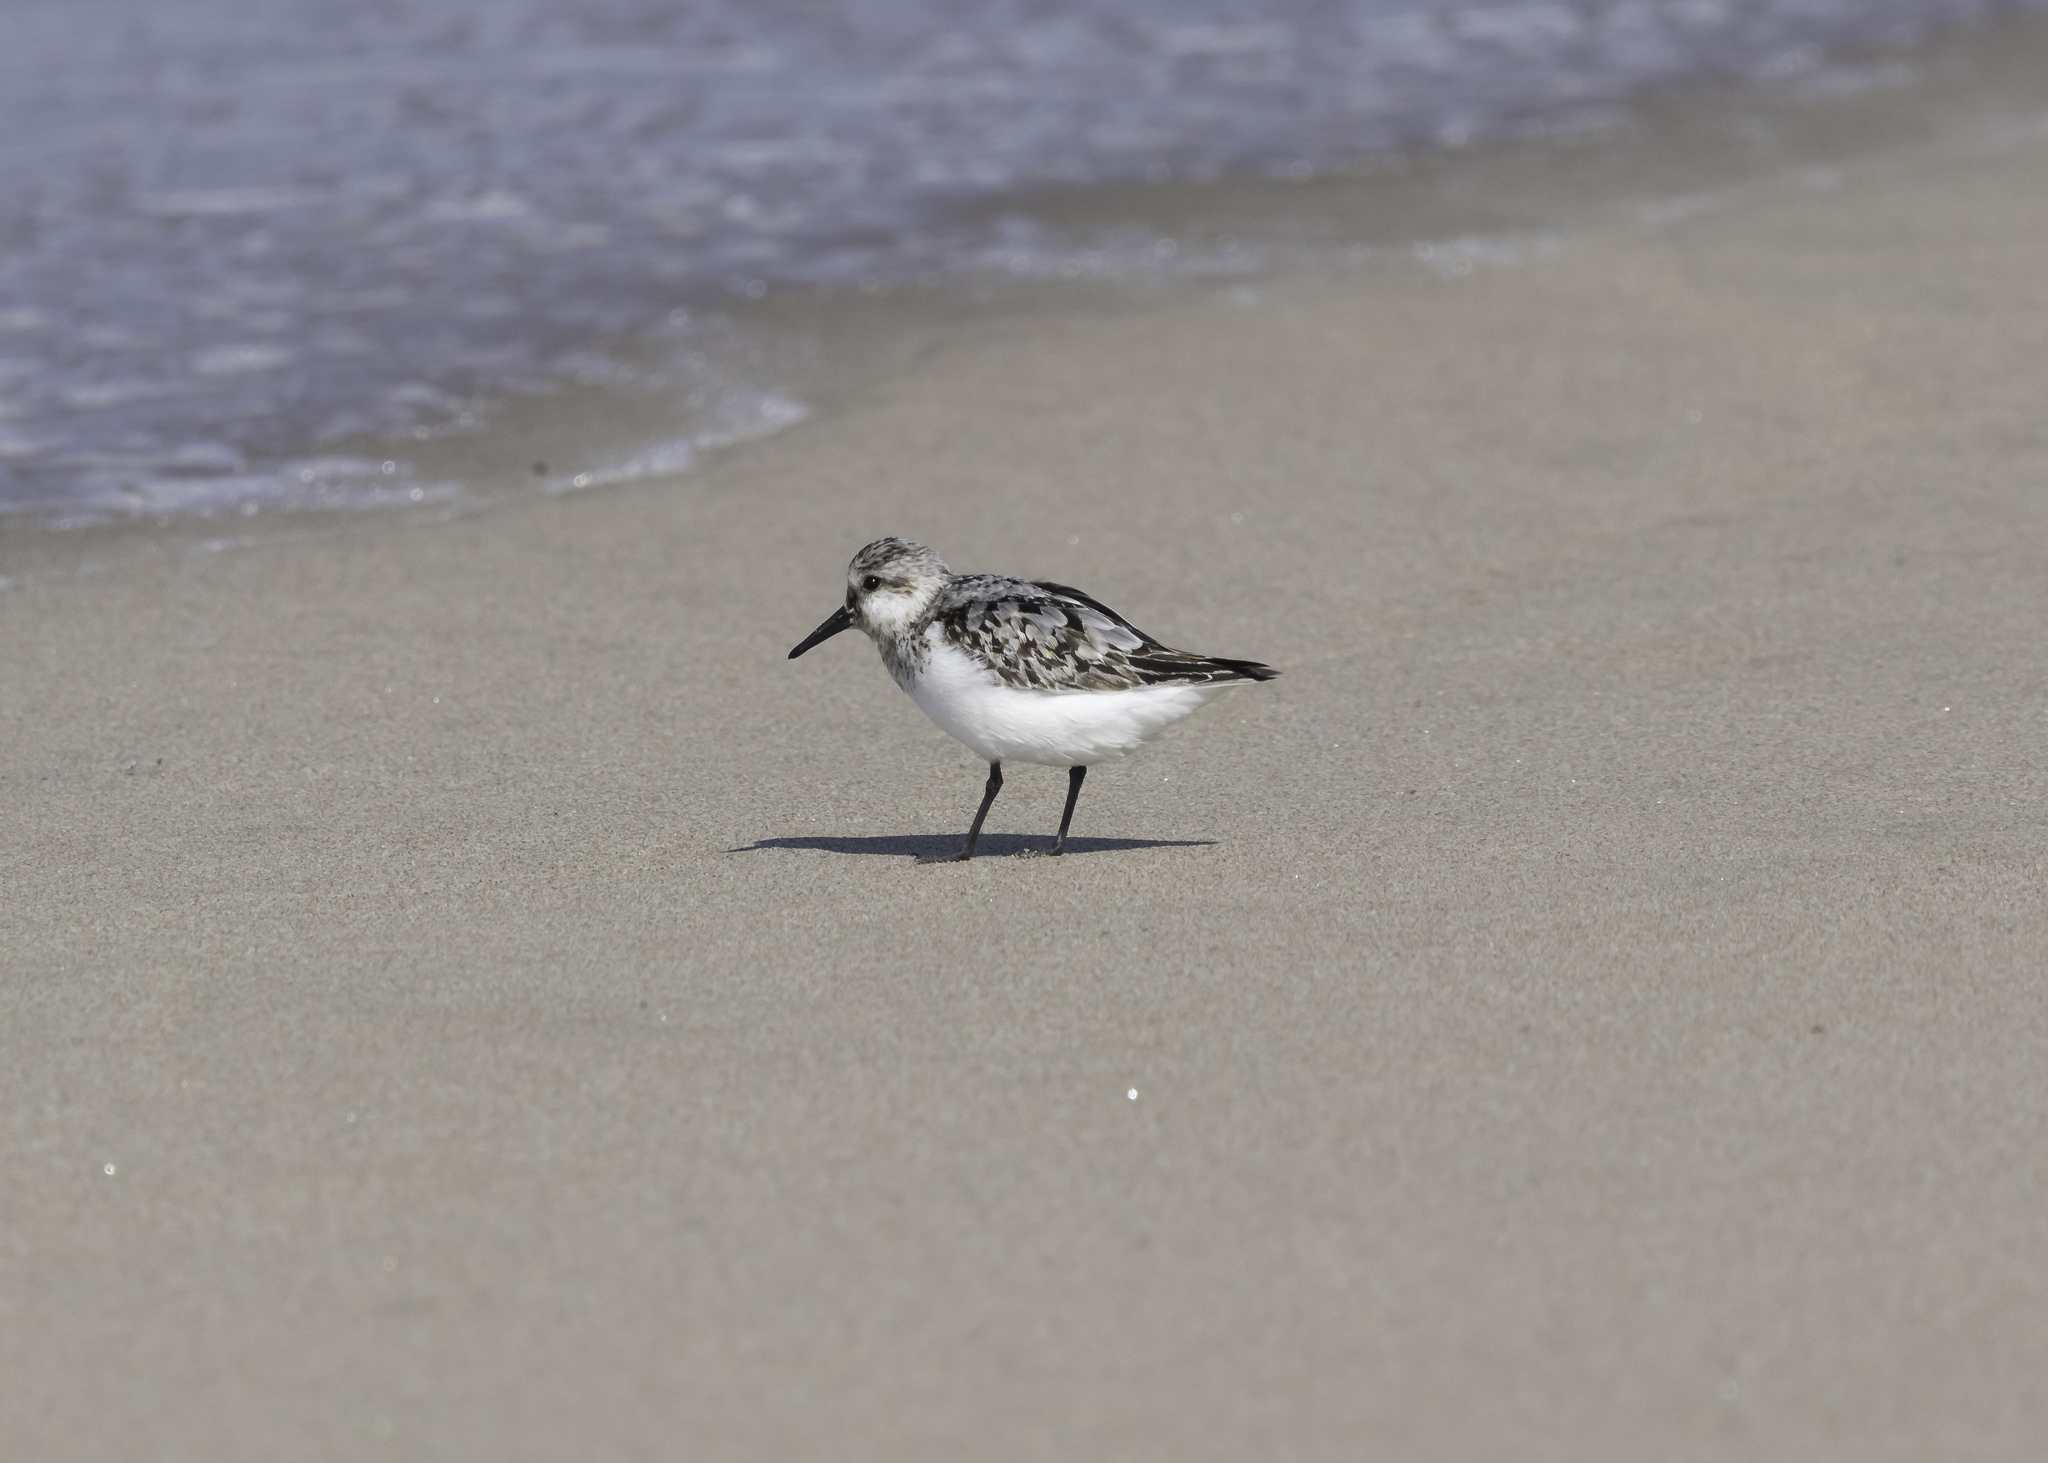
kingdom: Animalia
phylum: Chordata
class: Aves
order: Charadriiformes
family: Scolopacidae
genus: Calidris
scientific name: Calidris alba
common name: Sanderling
